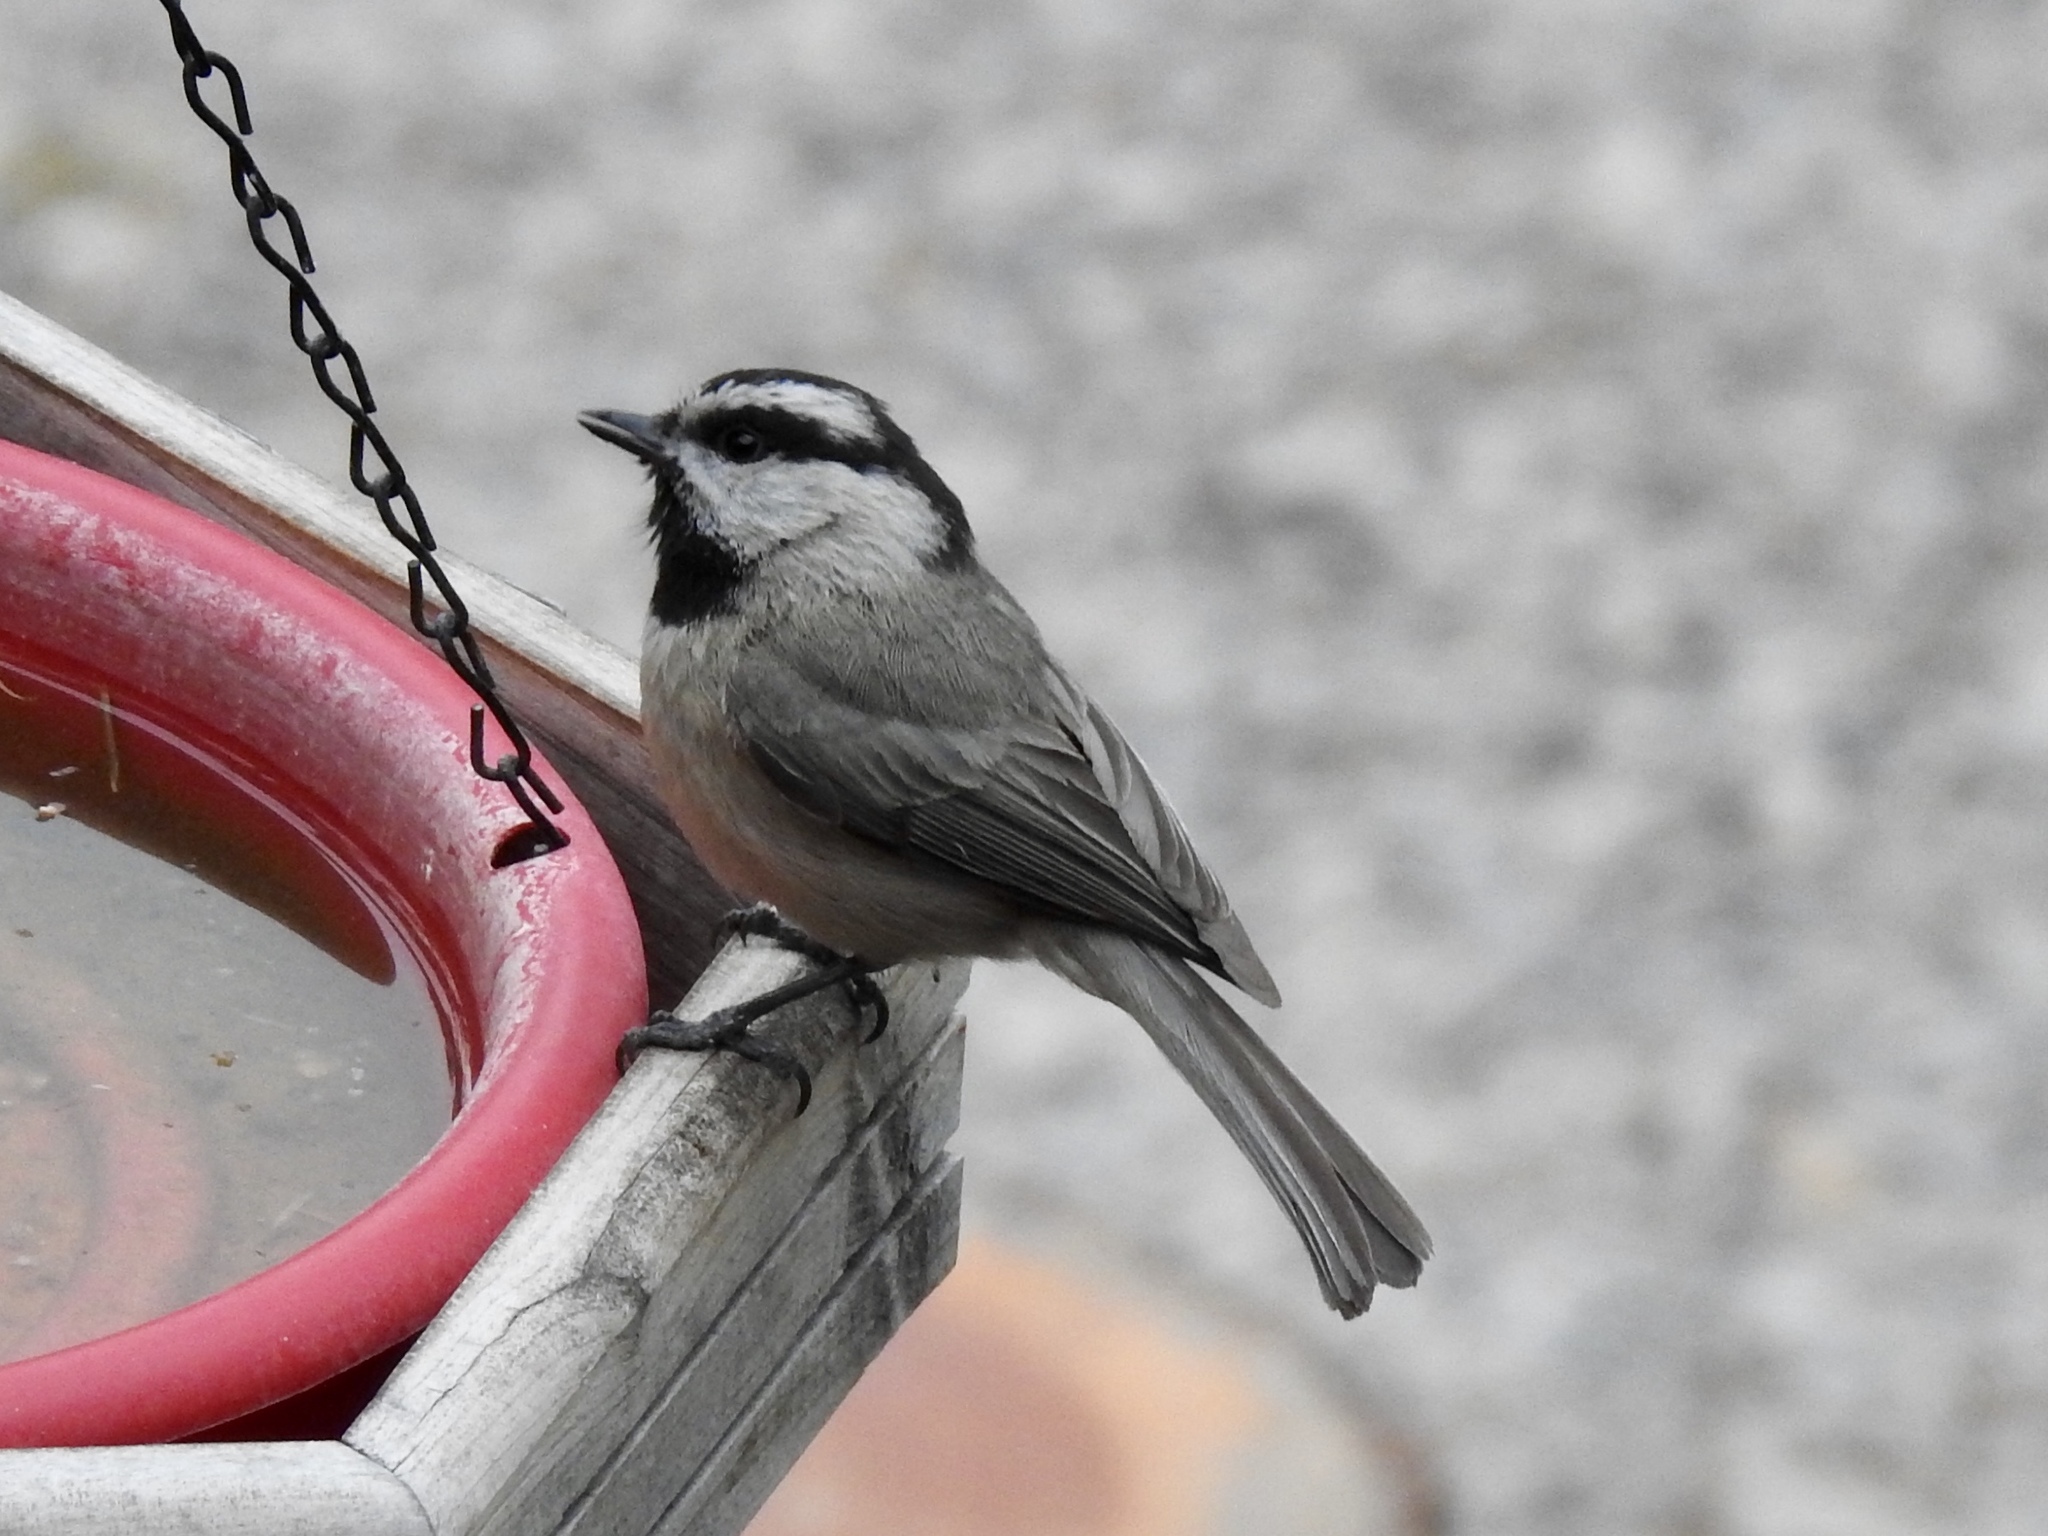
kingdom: Animalia
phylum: Chordata
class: Aves
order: Passeriformes
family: Paridae
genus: Poecile
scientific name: Poecile gambeli
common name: Mountain chickadee
